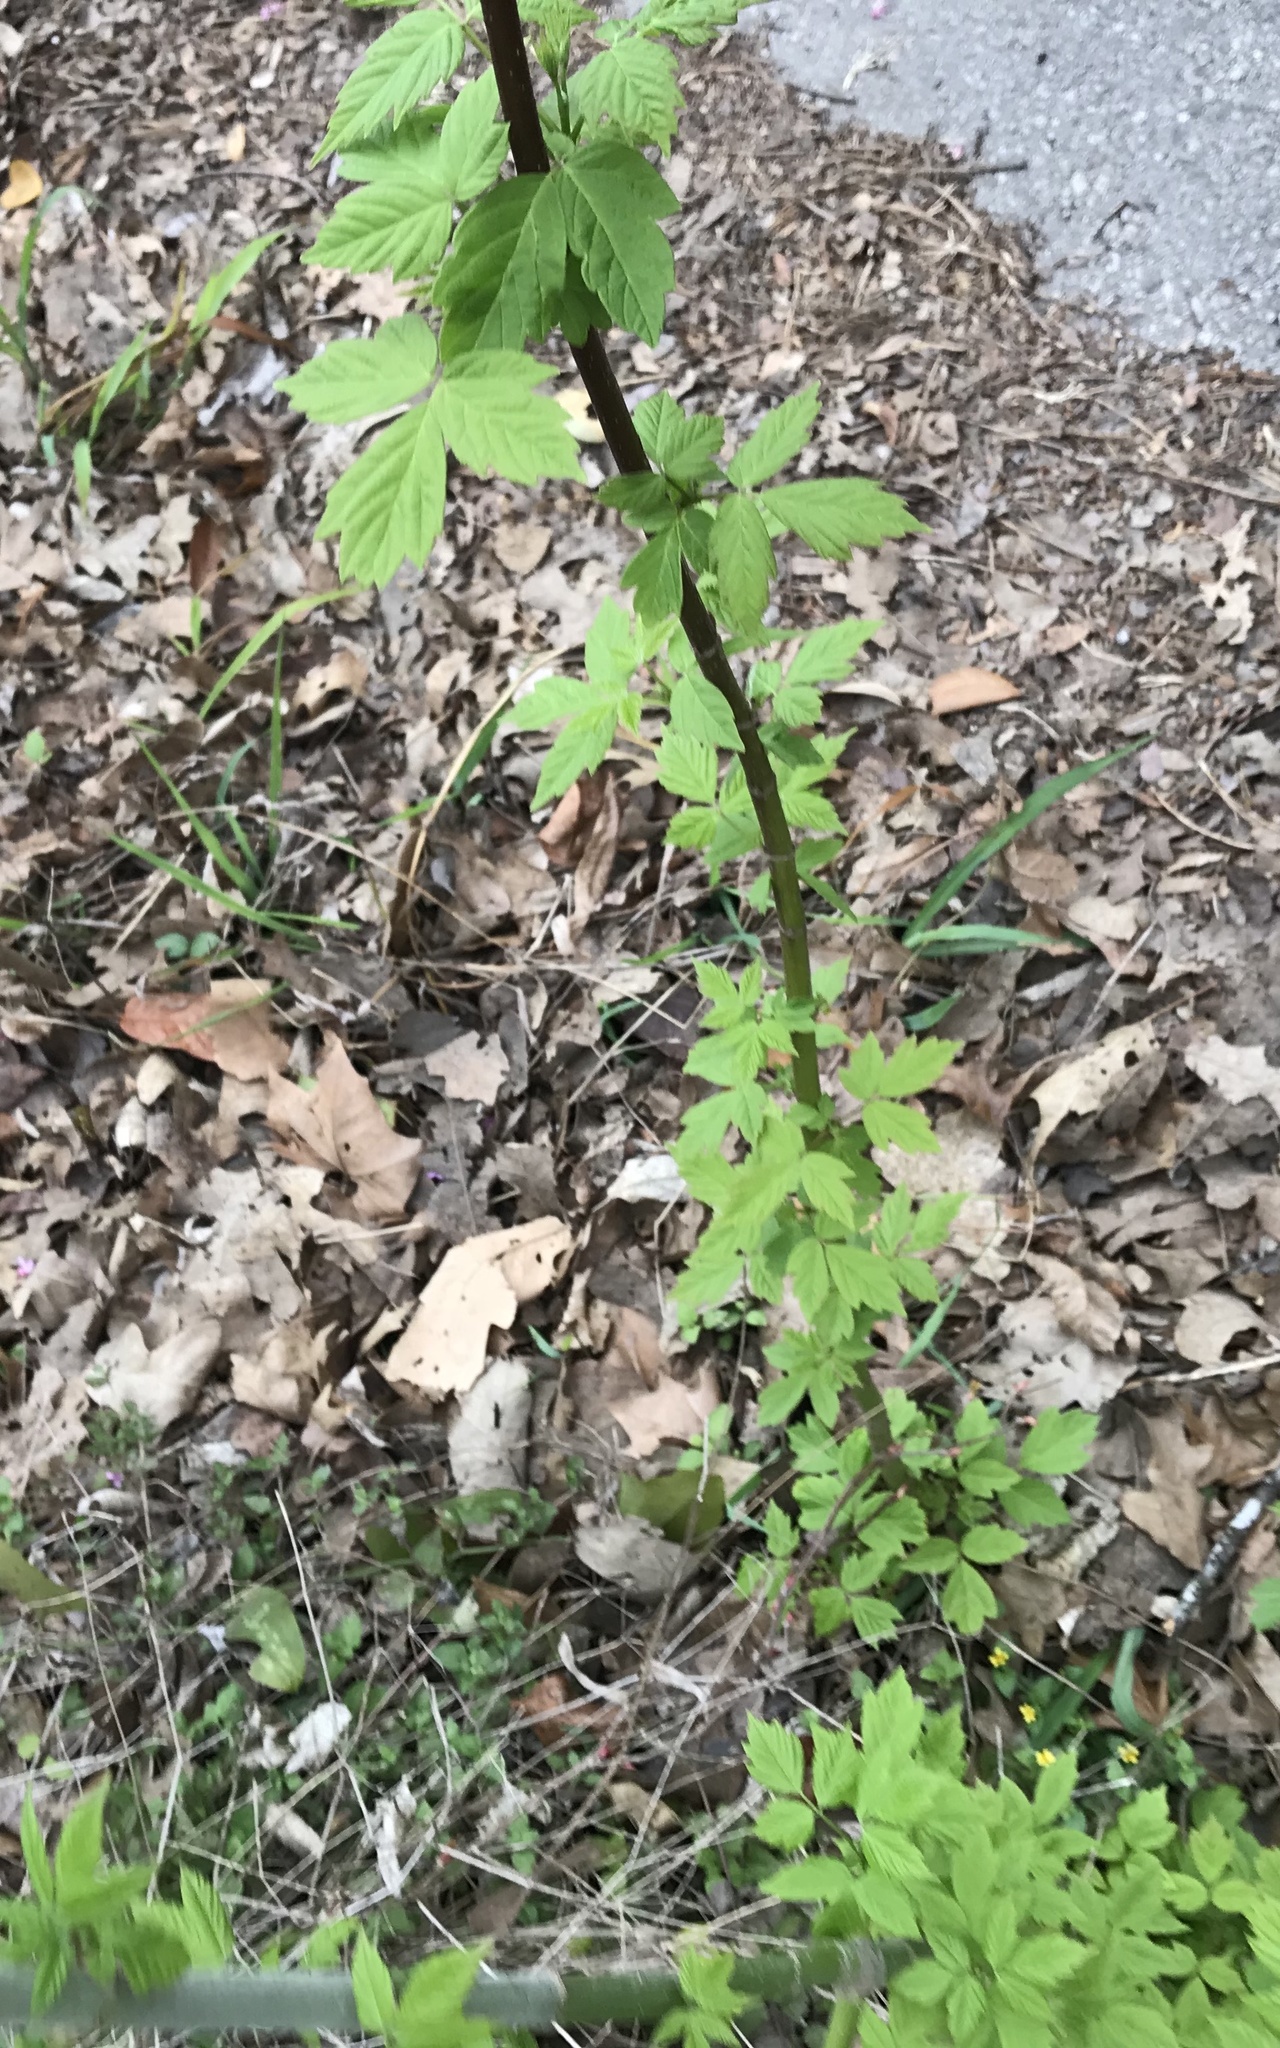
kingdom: Plantae
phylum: Tracheophyta
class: Magnoliopsida
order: Sapindales
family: Sapindaceae
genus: Acer
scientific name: Acer negundo
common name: Ashleaf maple
